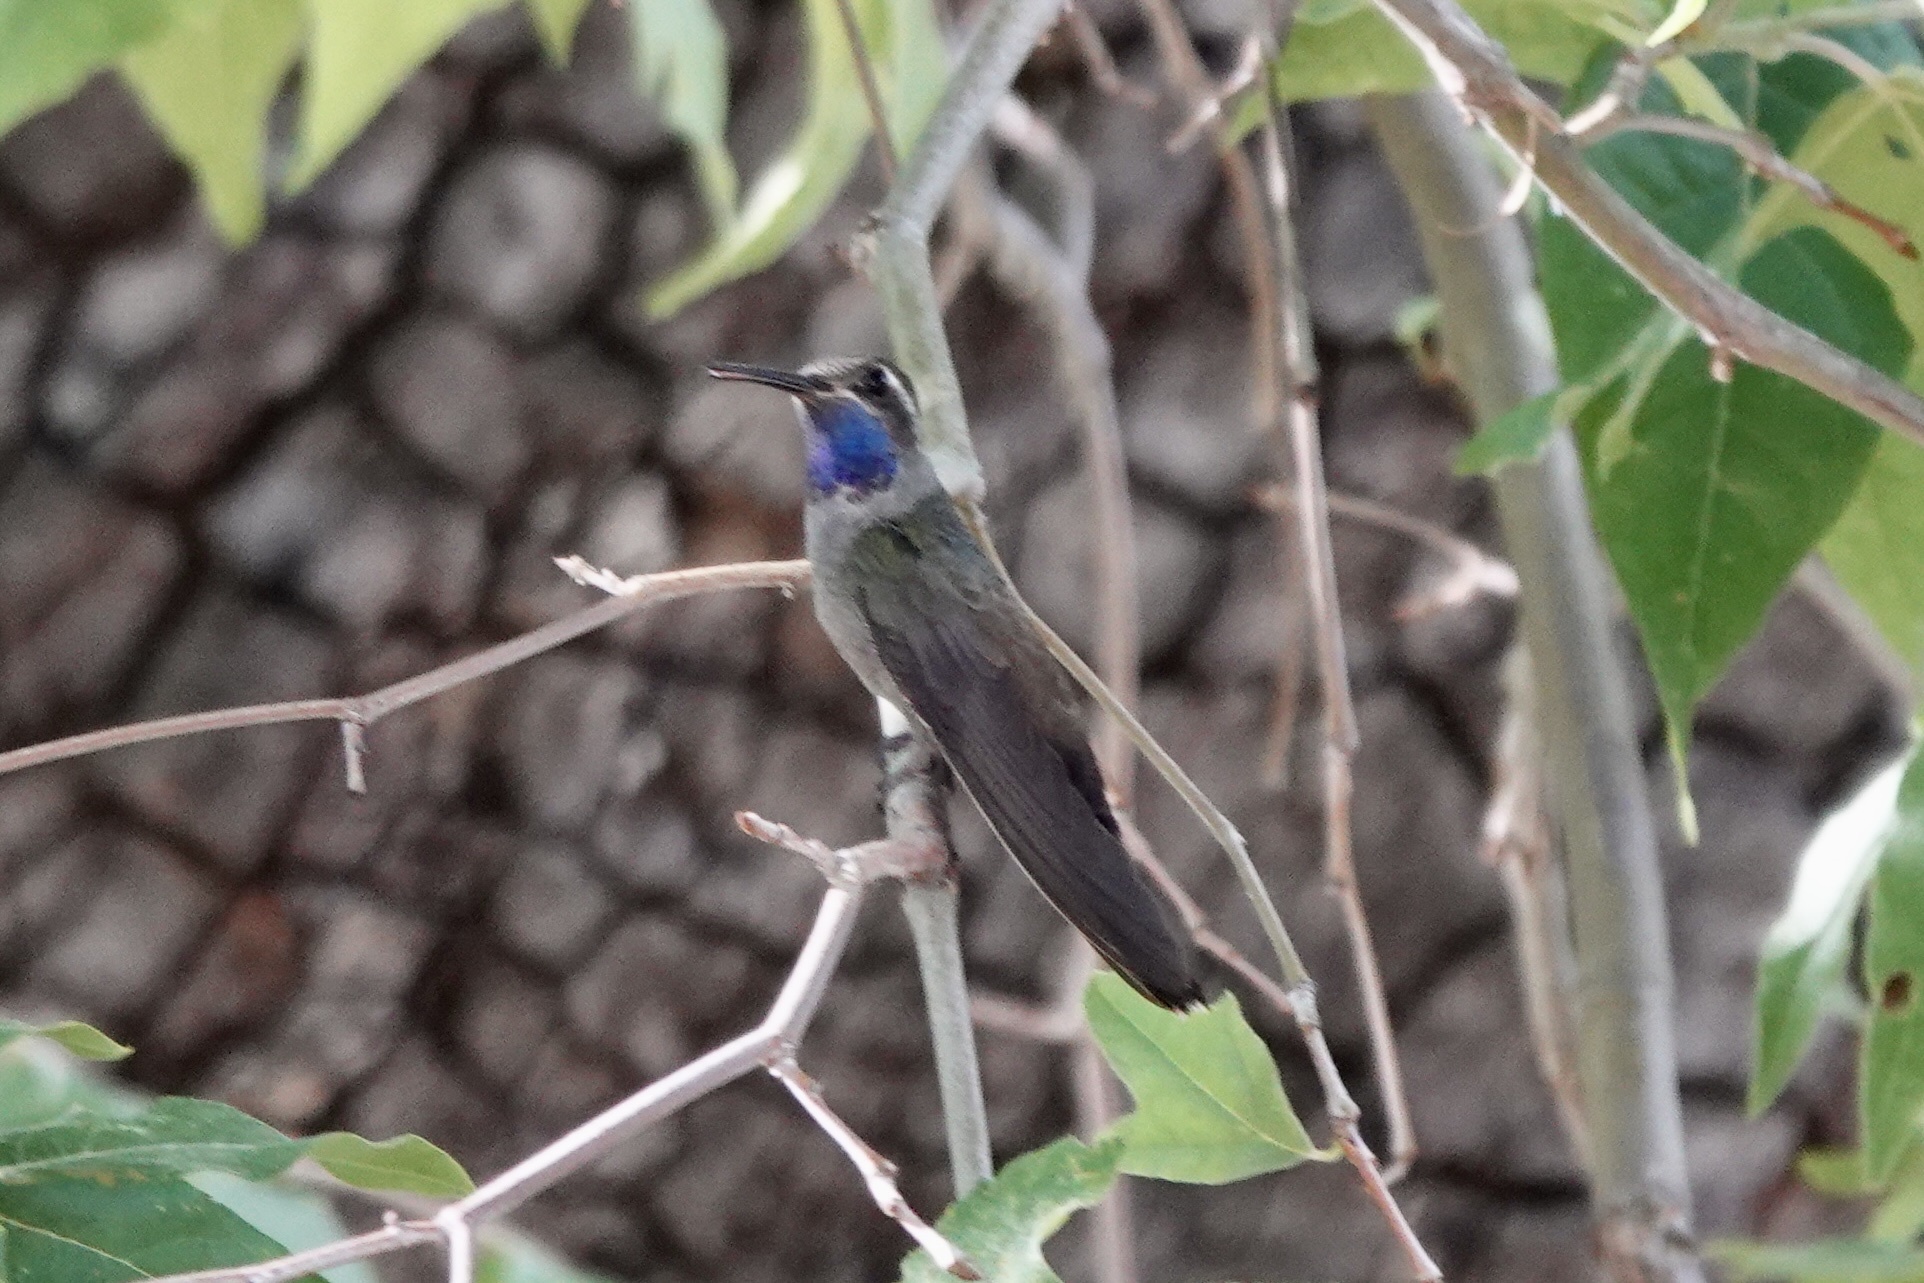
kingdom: Animalia
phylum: Chordata
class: Aves
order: Apodiformes
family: Trochilidae
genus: Lampornis
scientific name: Lampornis clemenciae
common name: Blue-throated mountaingem
